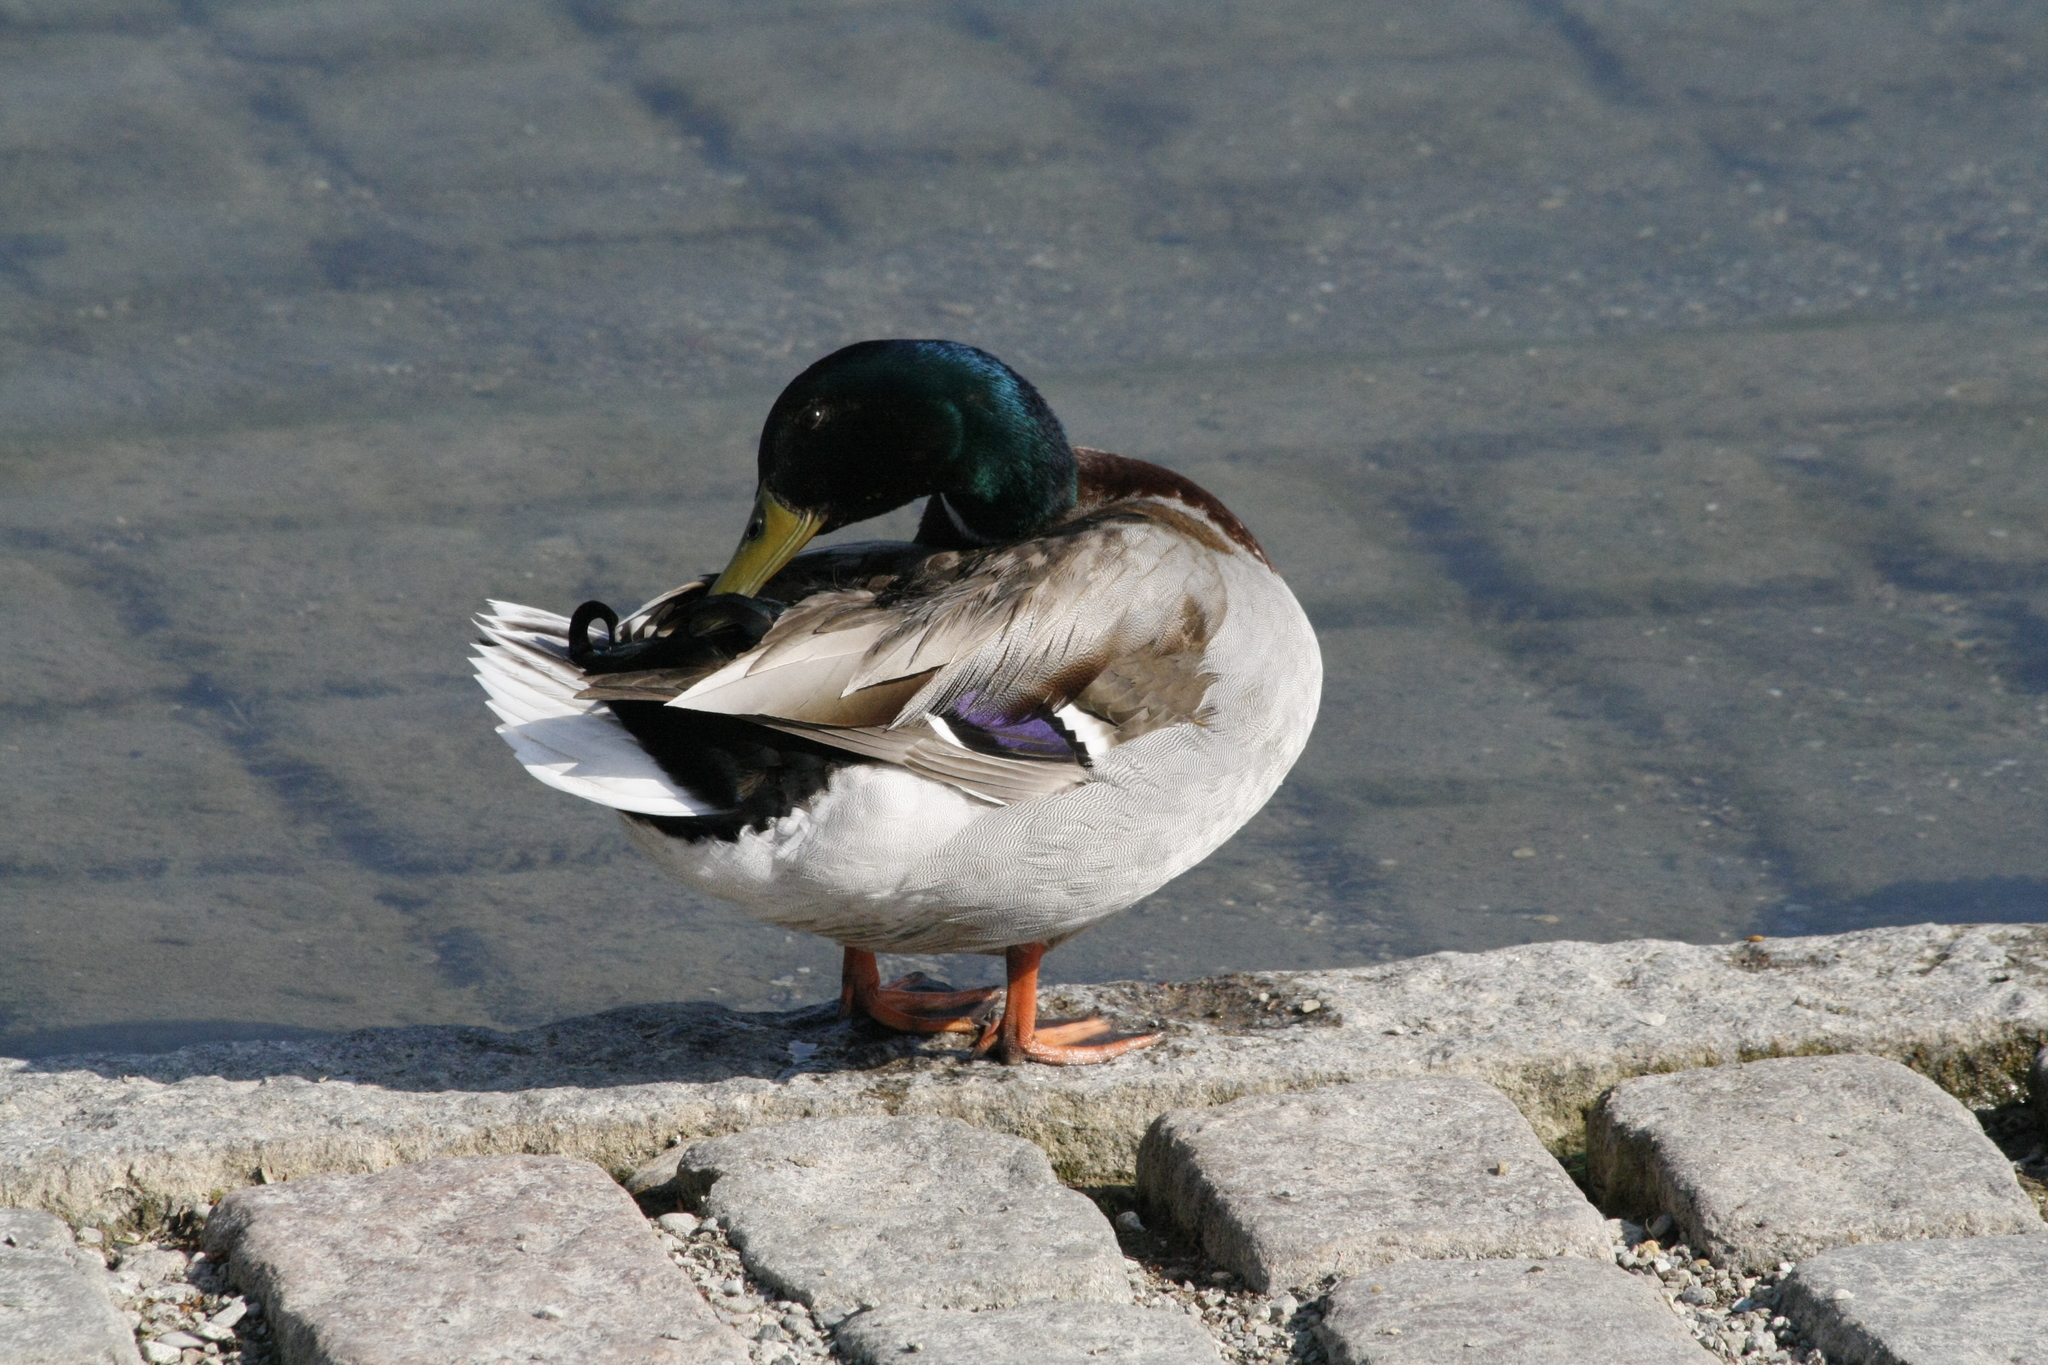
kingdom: Animalia
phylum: Chordata
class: Aves
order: Anseriformes
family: Anatidae
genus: Anas
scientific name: Anas platyrhynchos
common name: Mallard
